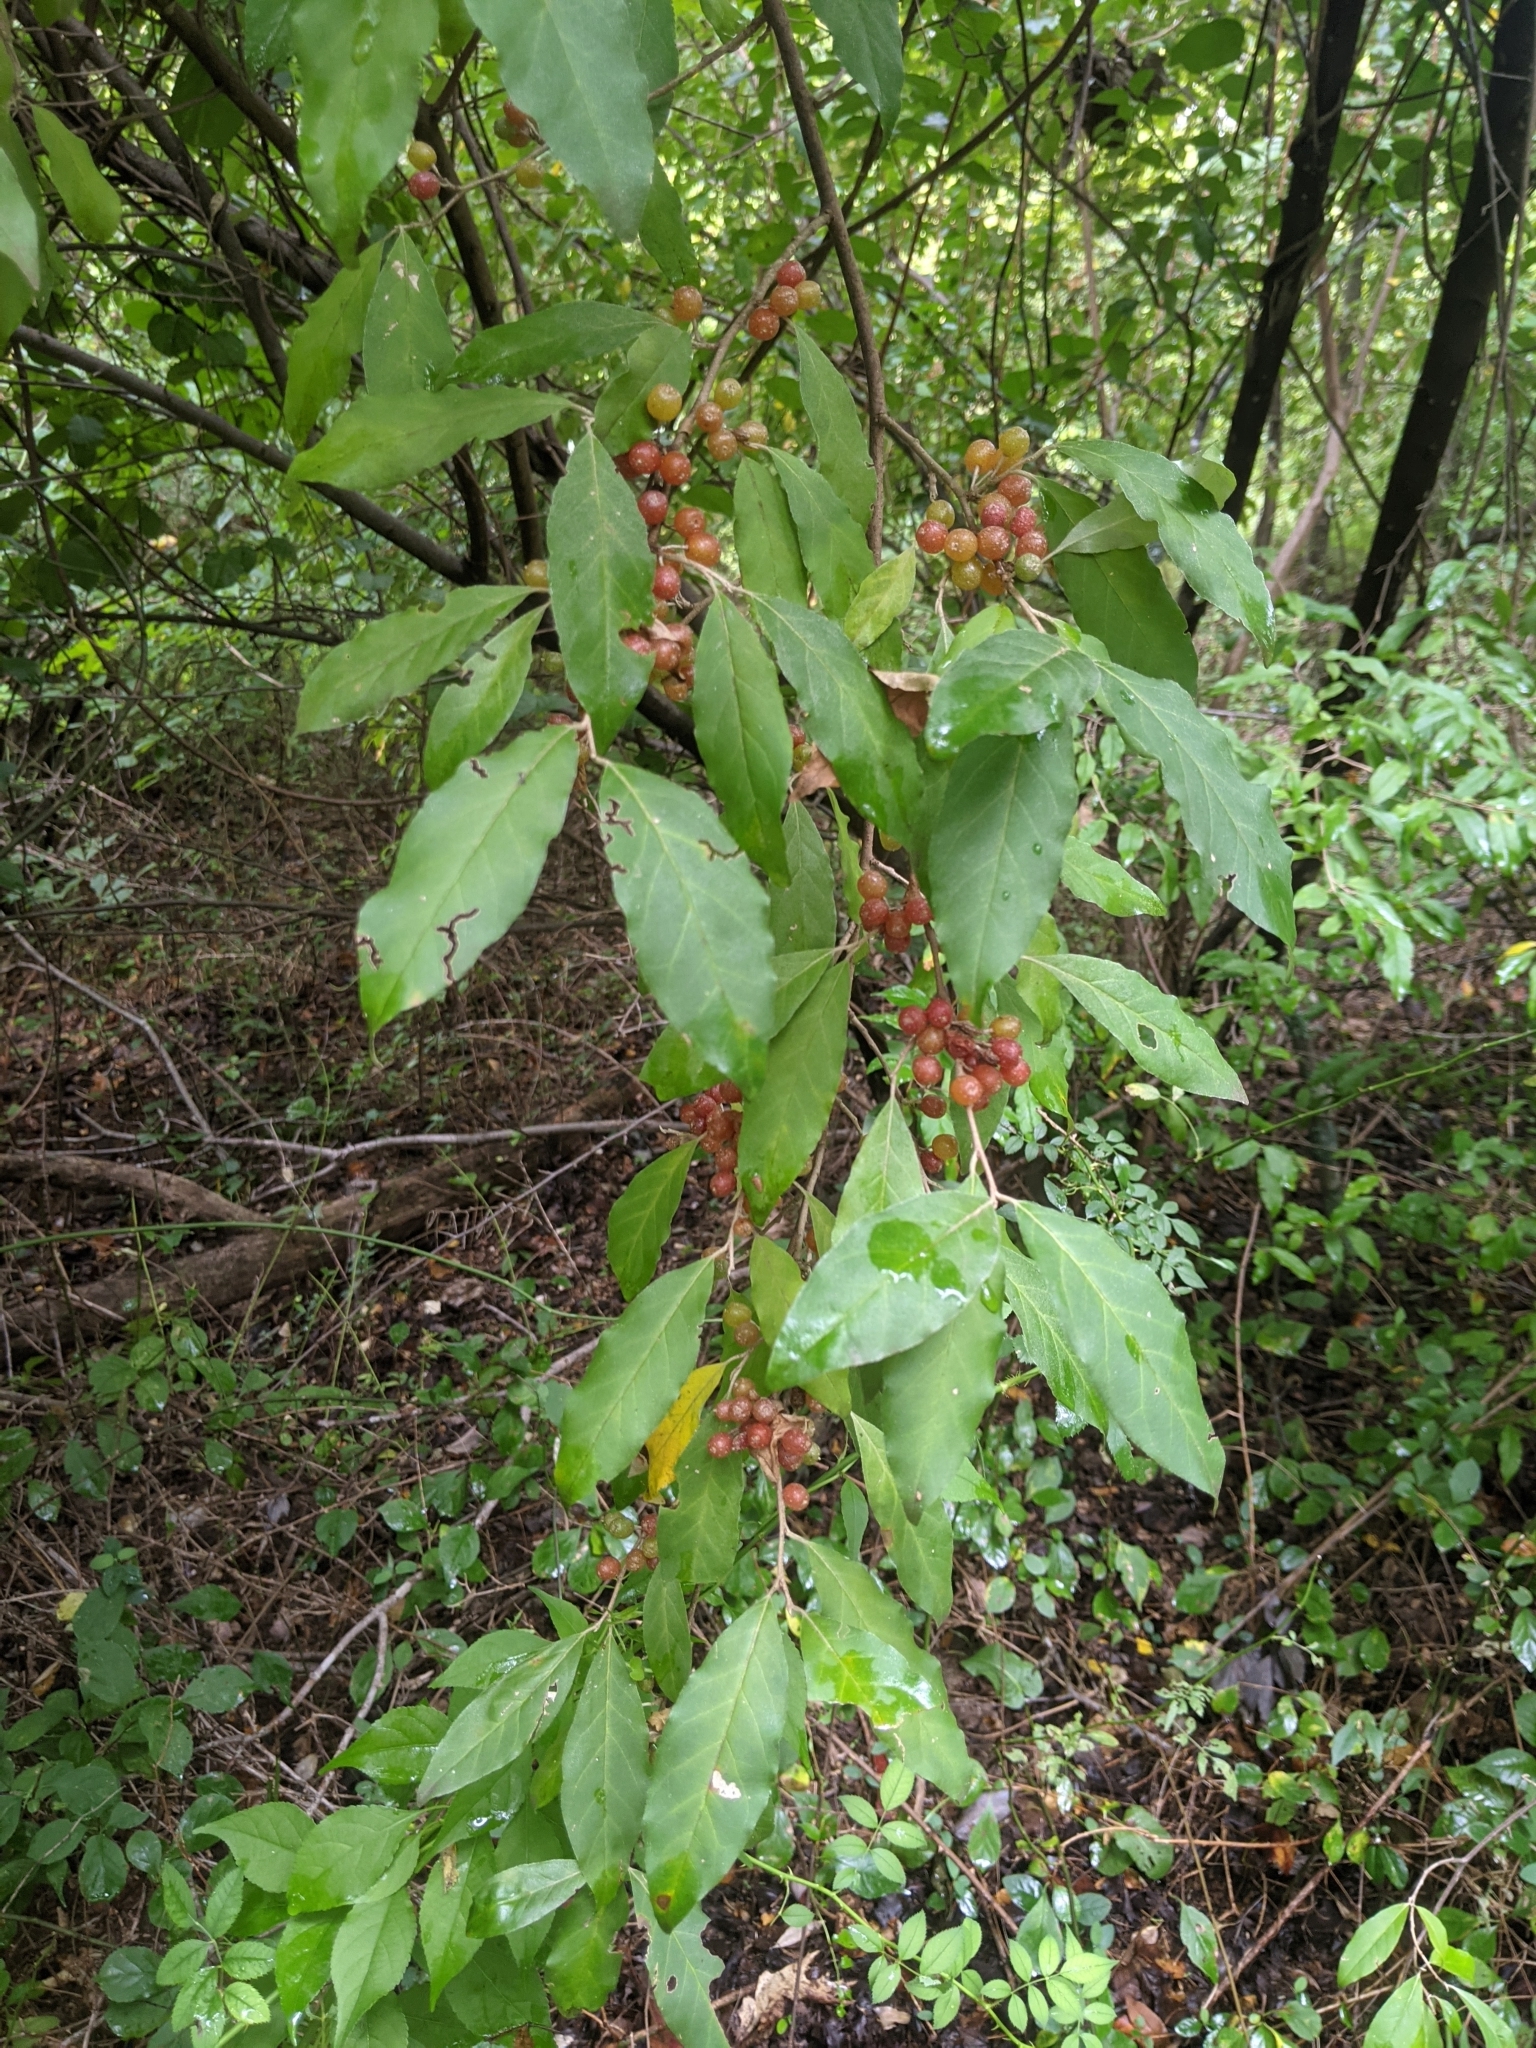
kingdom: Plantae
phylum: Tracheophyta
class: Magnoliopsida
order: Rosales
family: Elaeagnaceae
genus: Elaeagnus
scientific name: Elaeagnus umbellata
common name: Autumn olive
